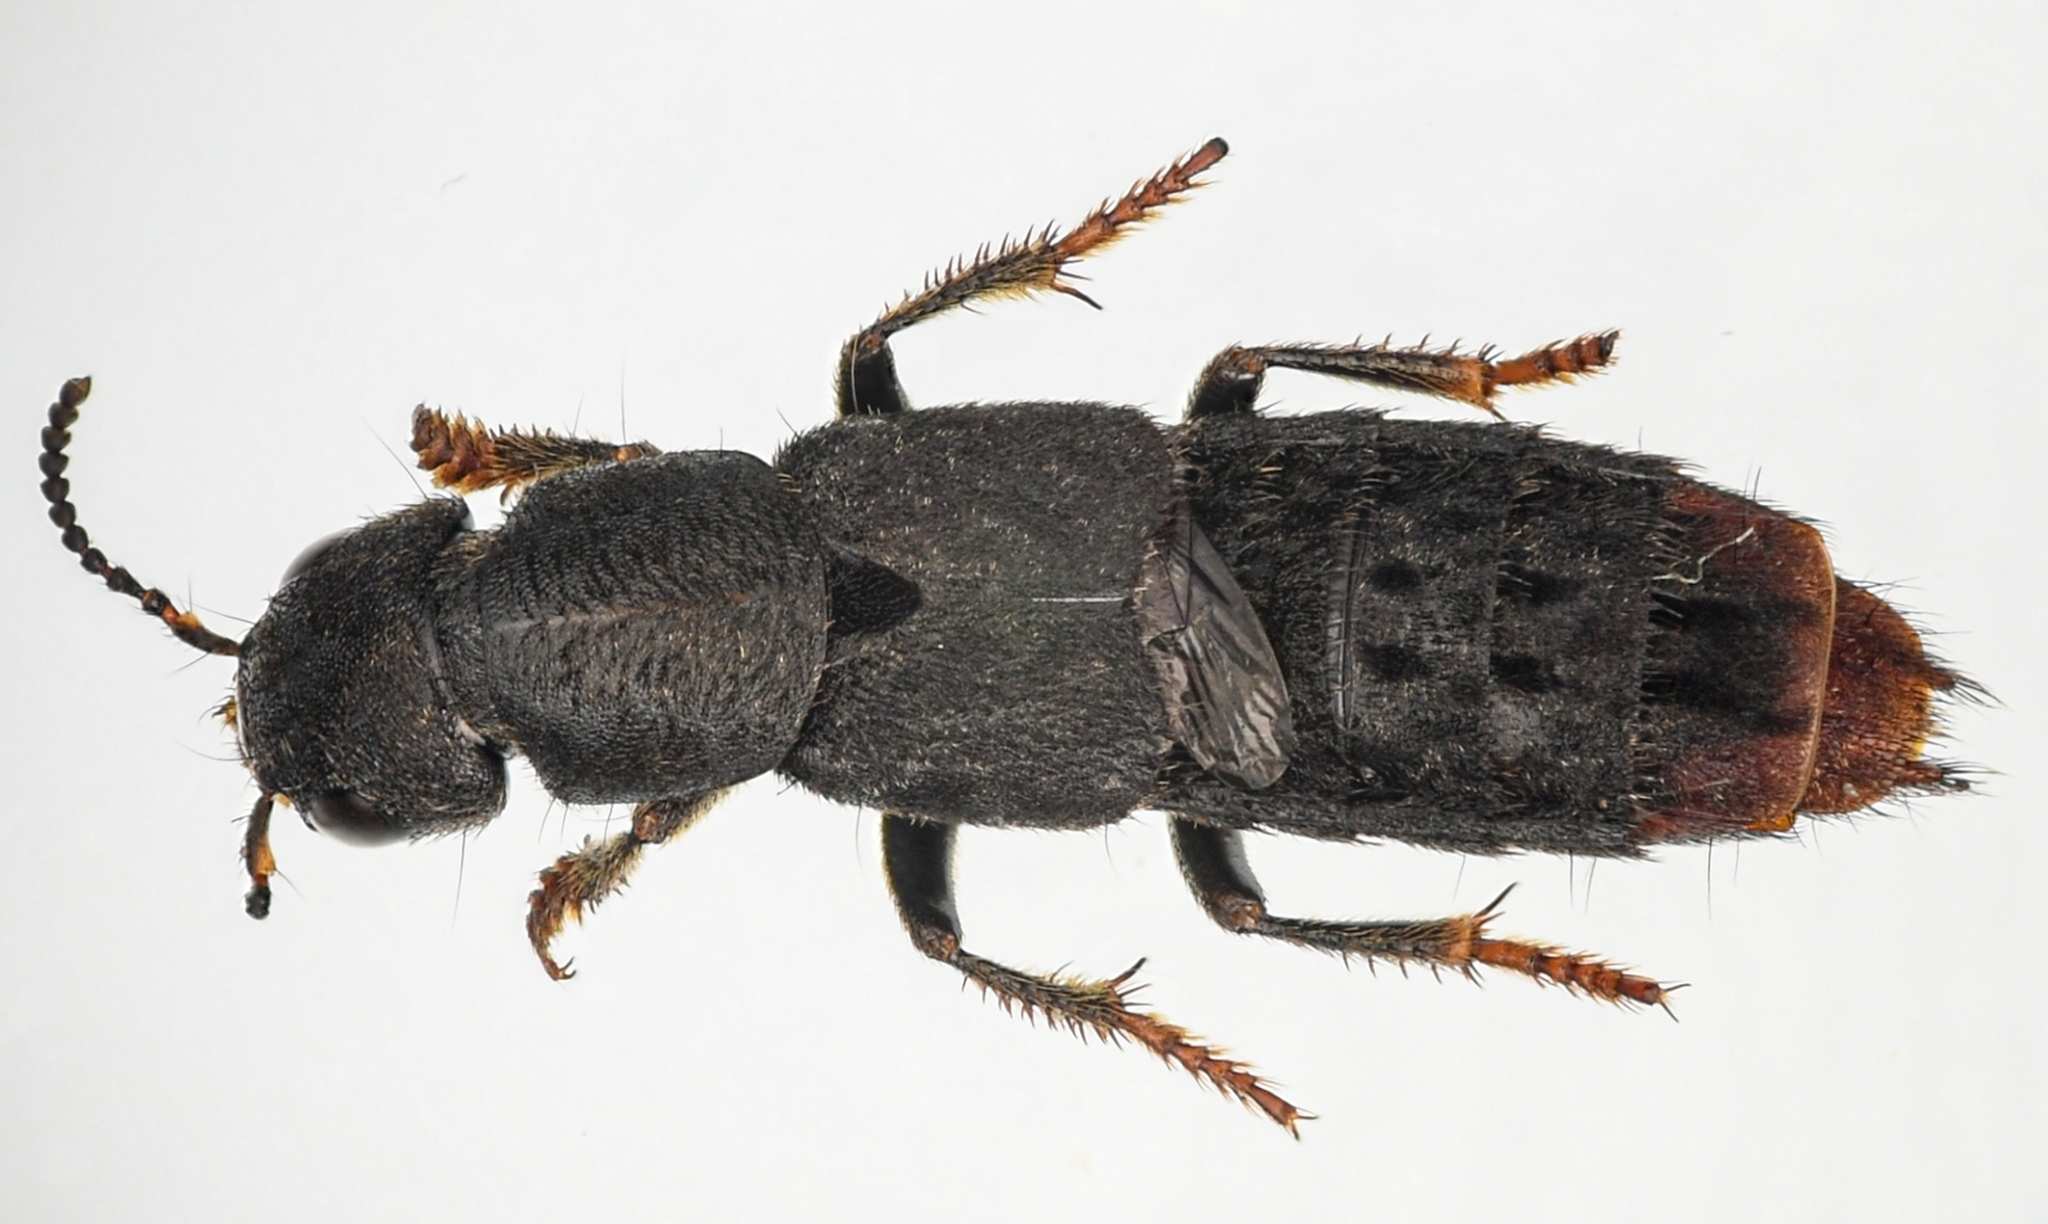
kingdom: Animalia
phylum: Arthropoda
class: Insecta
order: Coleoptera
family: Staphylinidae
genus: Platydracus
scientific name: Platydracus tarsalis
